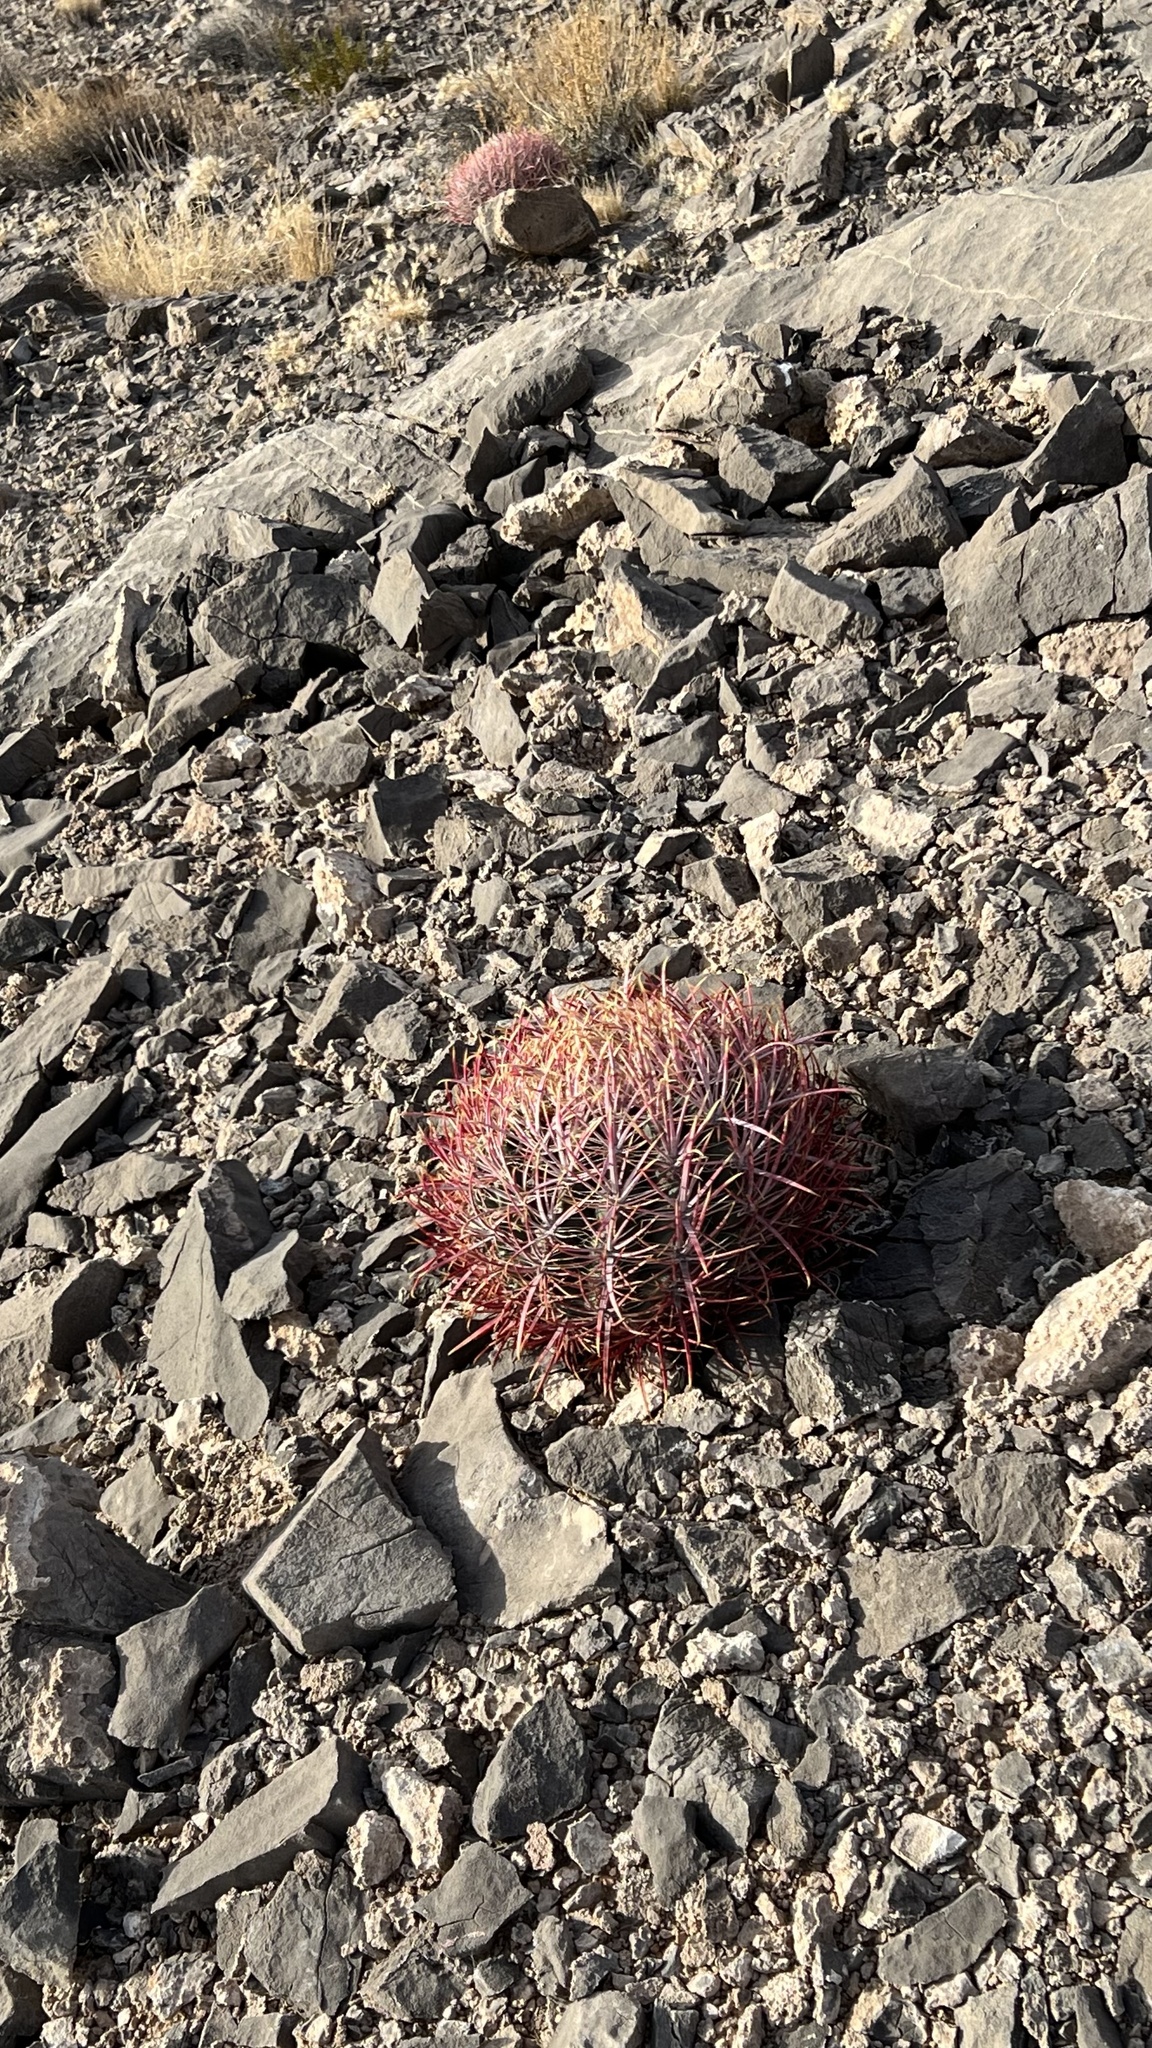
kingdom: Plantae
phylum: Tracheophyta
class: Magnoliopsida
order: Caryophyllales
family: Cactaceae
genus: Ferocactus
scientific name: Ferocactus cylindraceus
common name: California barrel cactus
